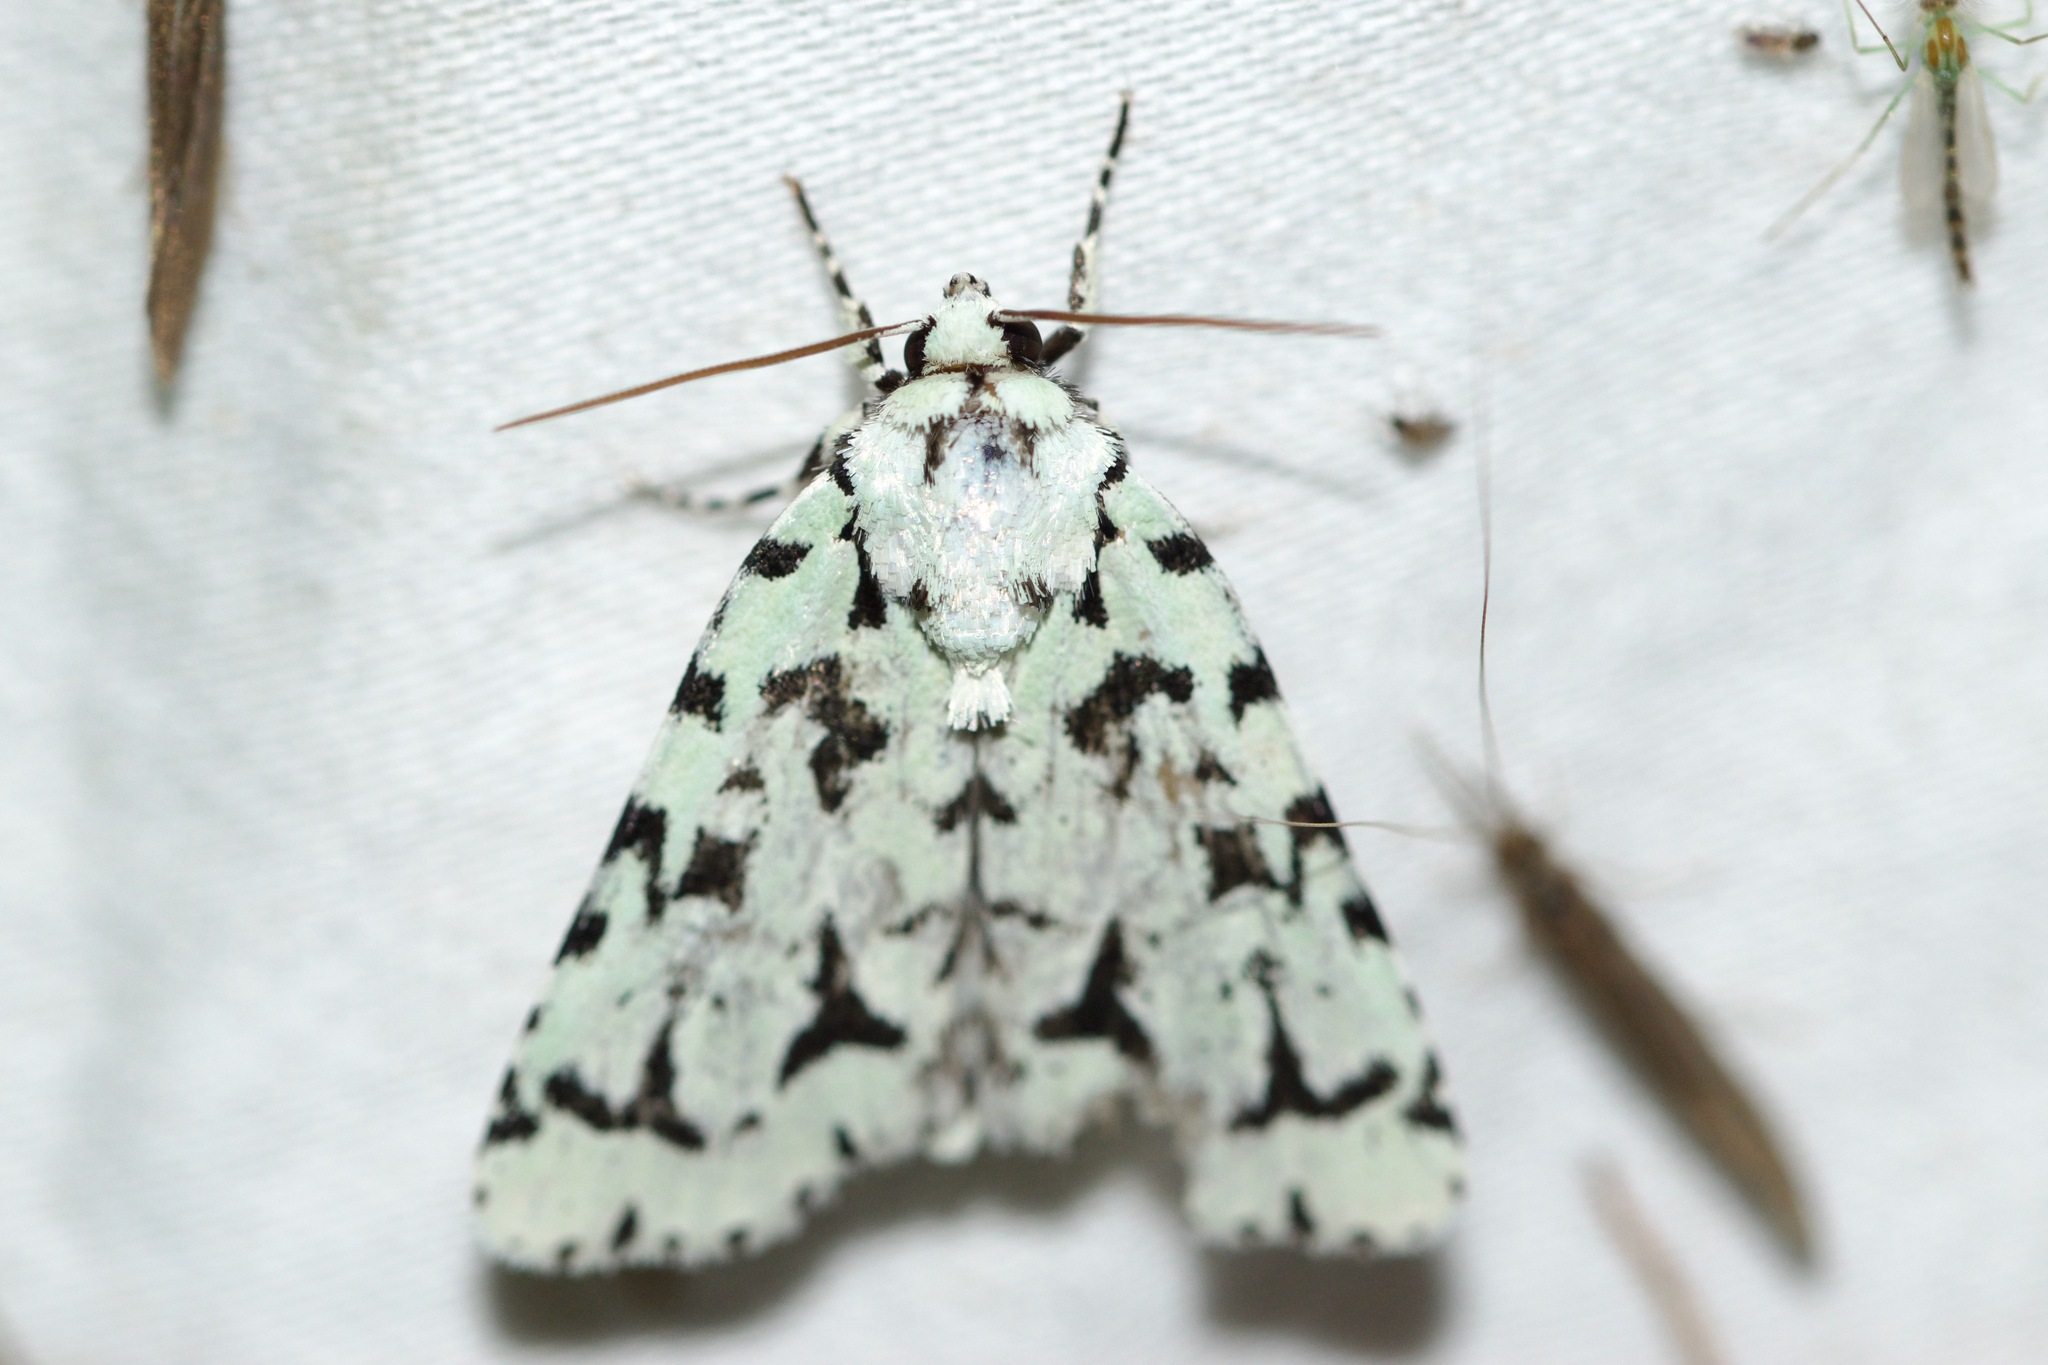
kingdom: Animalia
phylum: Arthropoda
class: Insecta
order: Lepidoptera
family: Noctuidae
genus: Acronicta
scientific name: Acronicta fallax
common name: Green marvel
